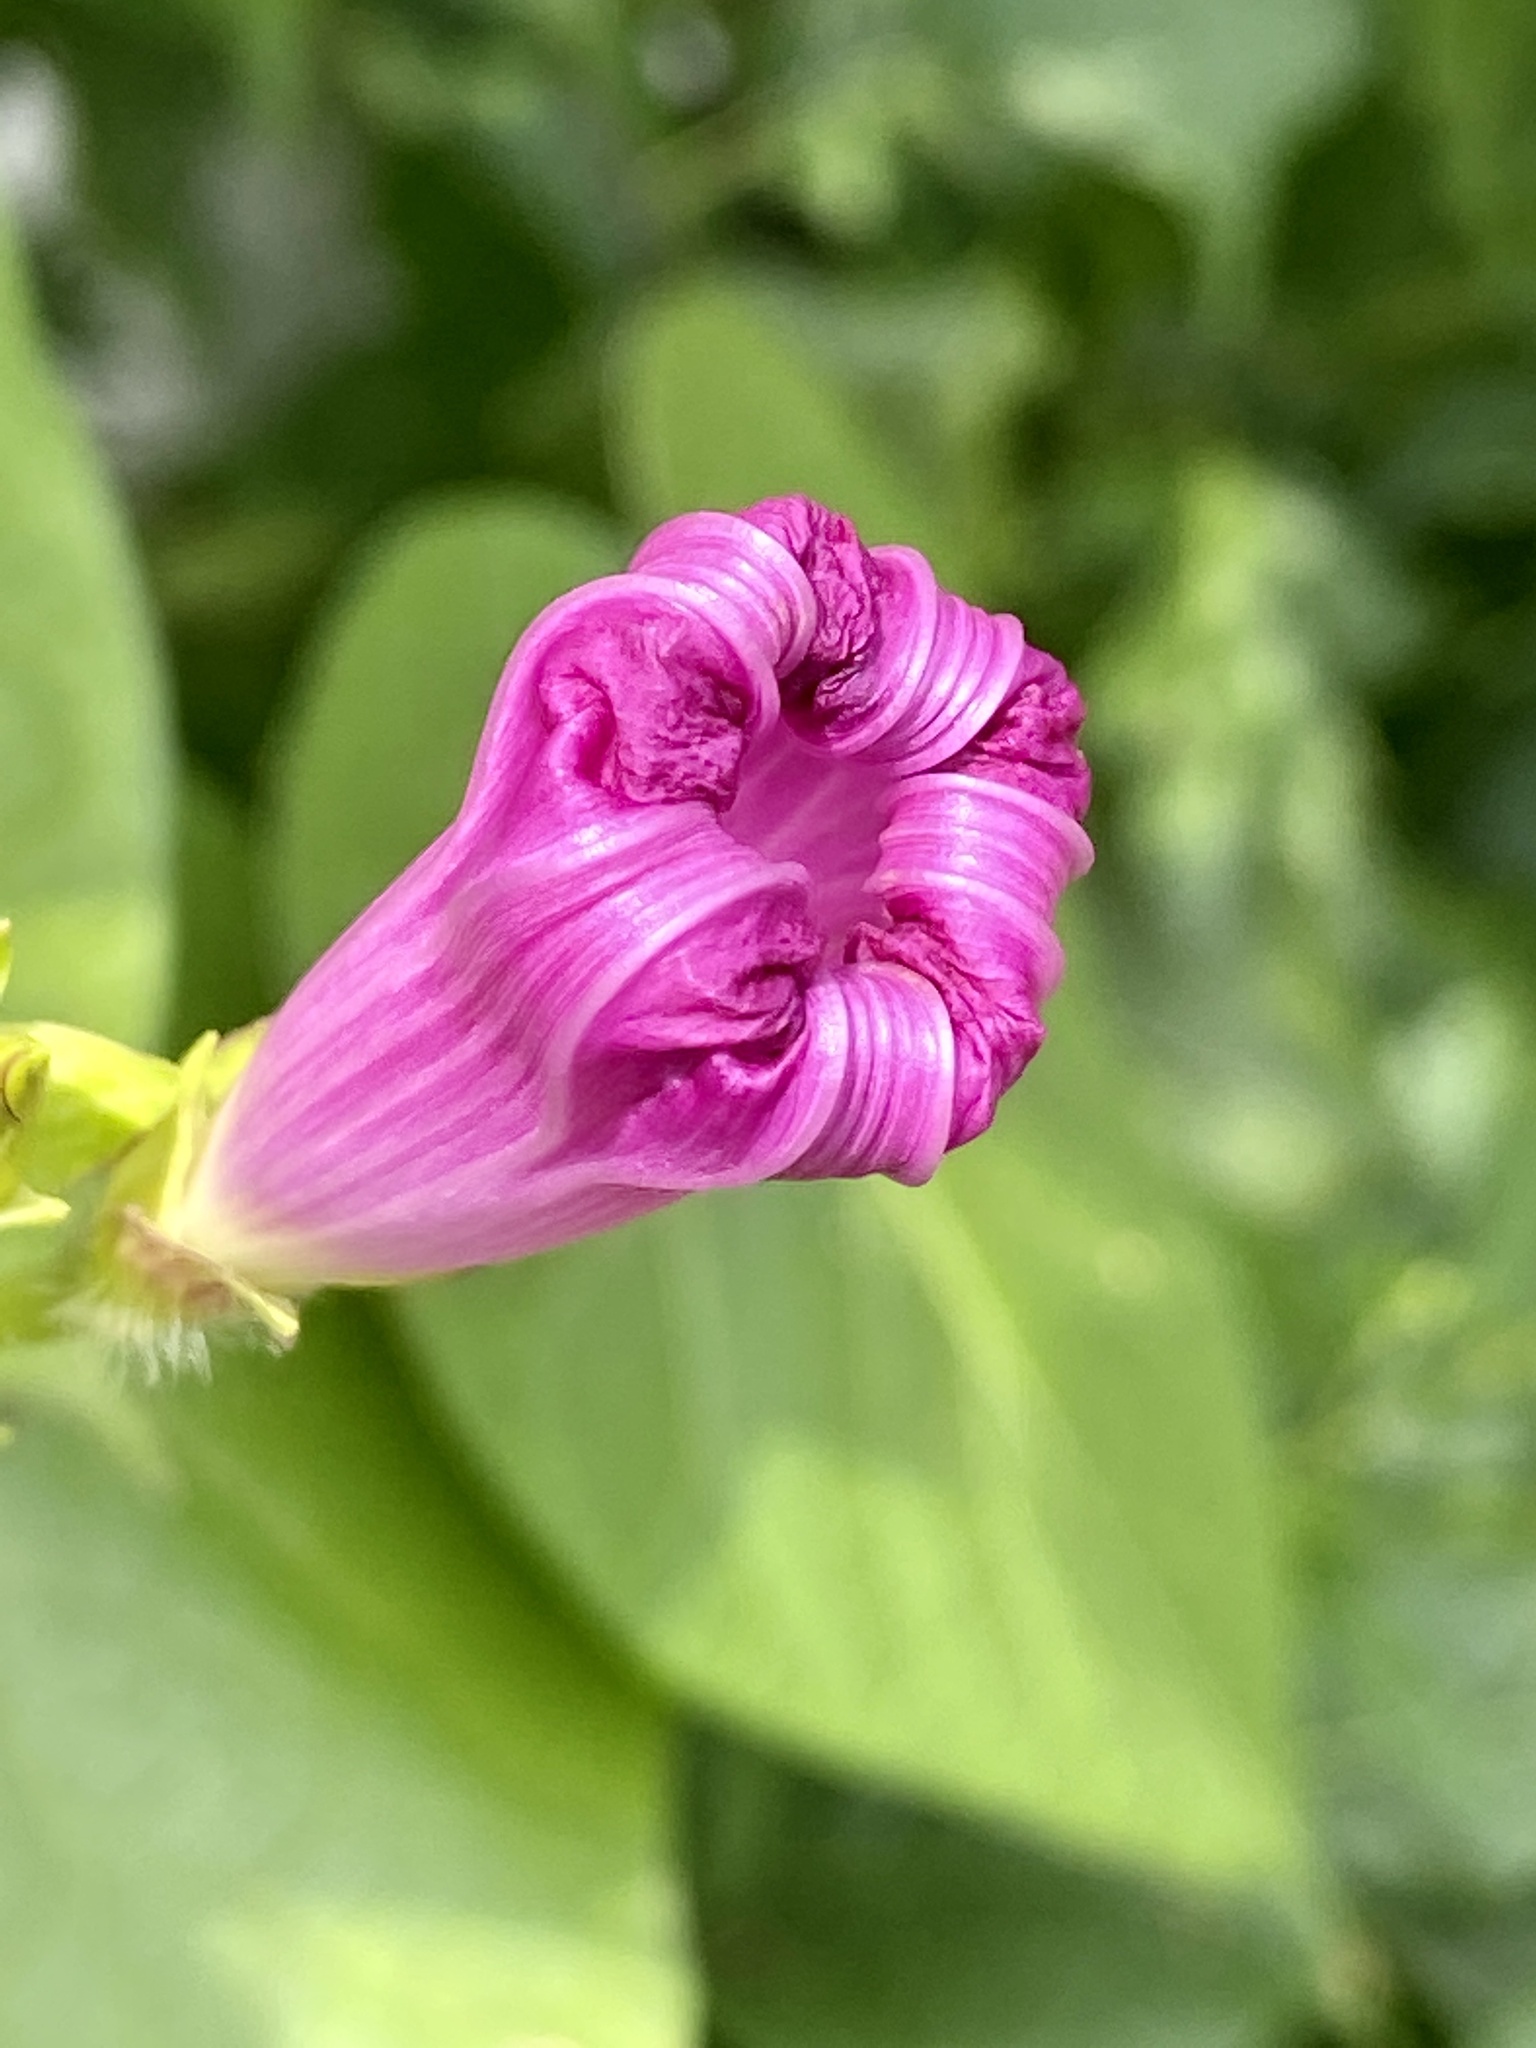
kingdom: Plantae
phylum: Tracheophyta
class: Magnoliopsida
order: Solanales
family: Convolvulaceae
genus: Ipomoea
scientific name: Ipomoea purpurea
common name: Common morning-glory
